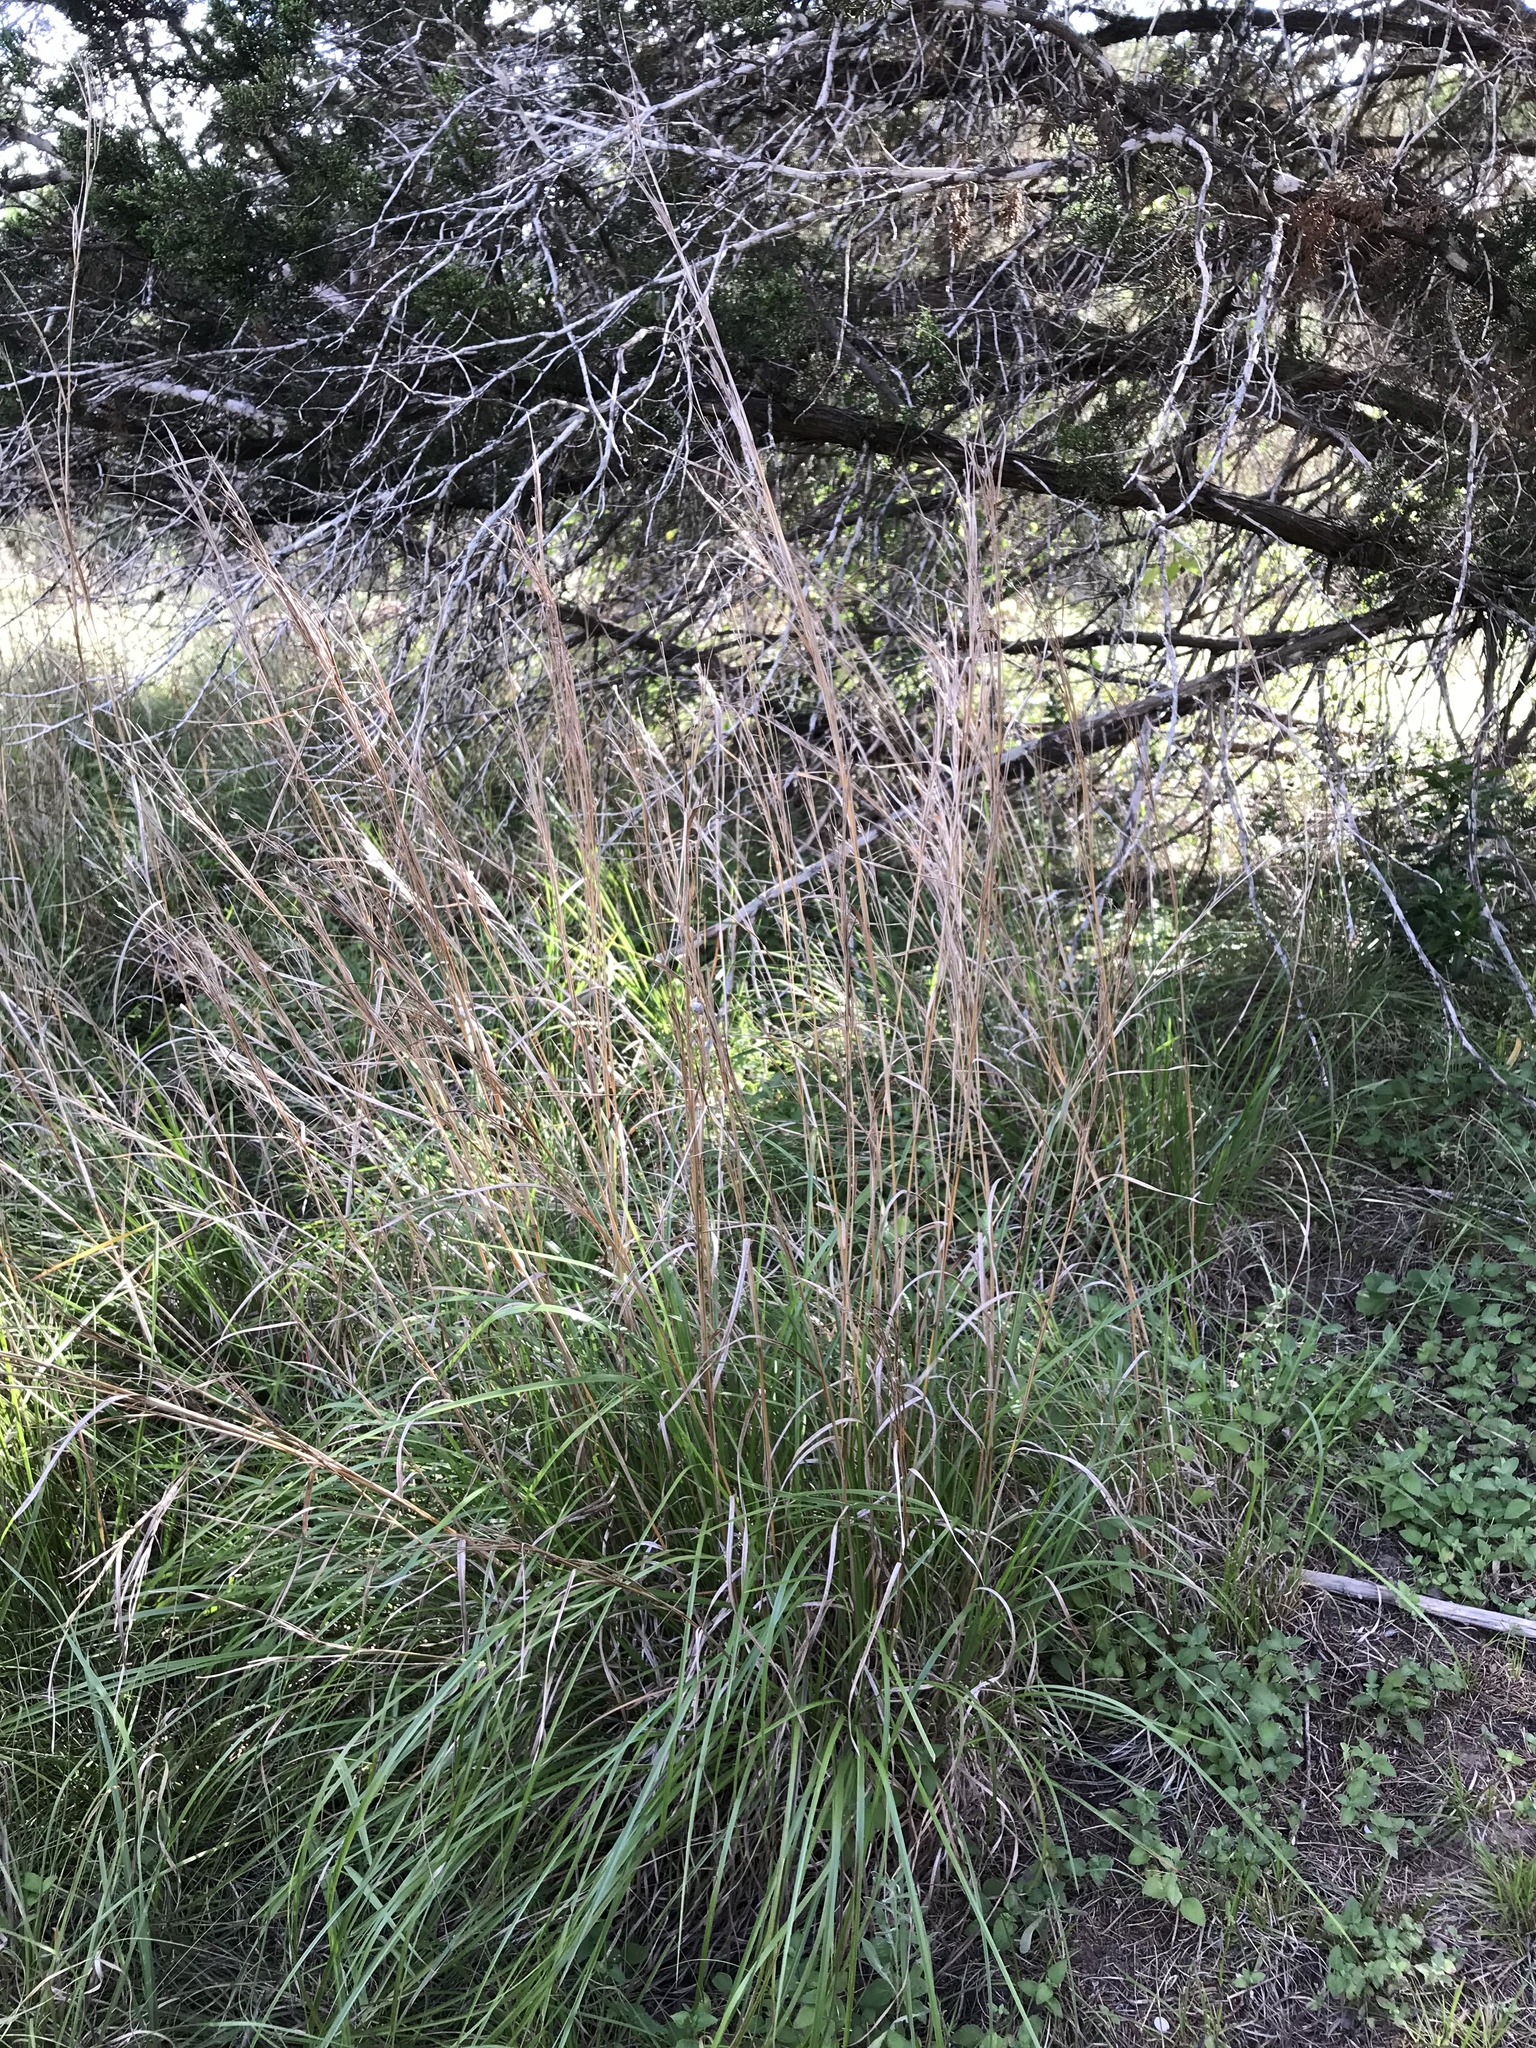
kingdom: Plantae
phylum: Tracheophyta
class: Liliopsida
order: Poales
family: Poaceae
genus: Schizachyrium
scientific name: Schizachyrium scoparium
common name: Little bluestem
